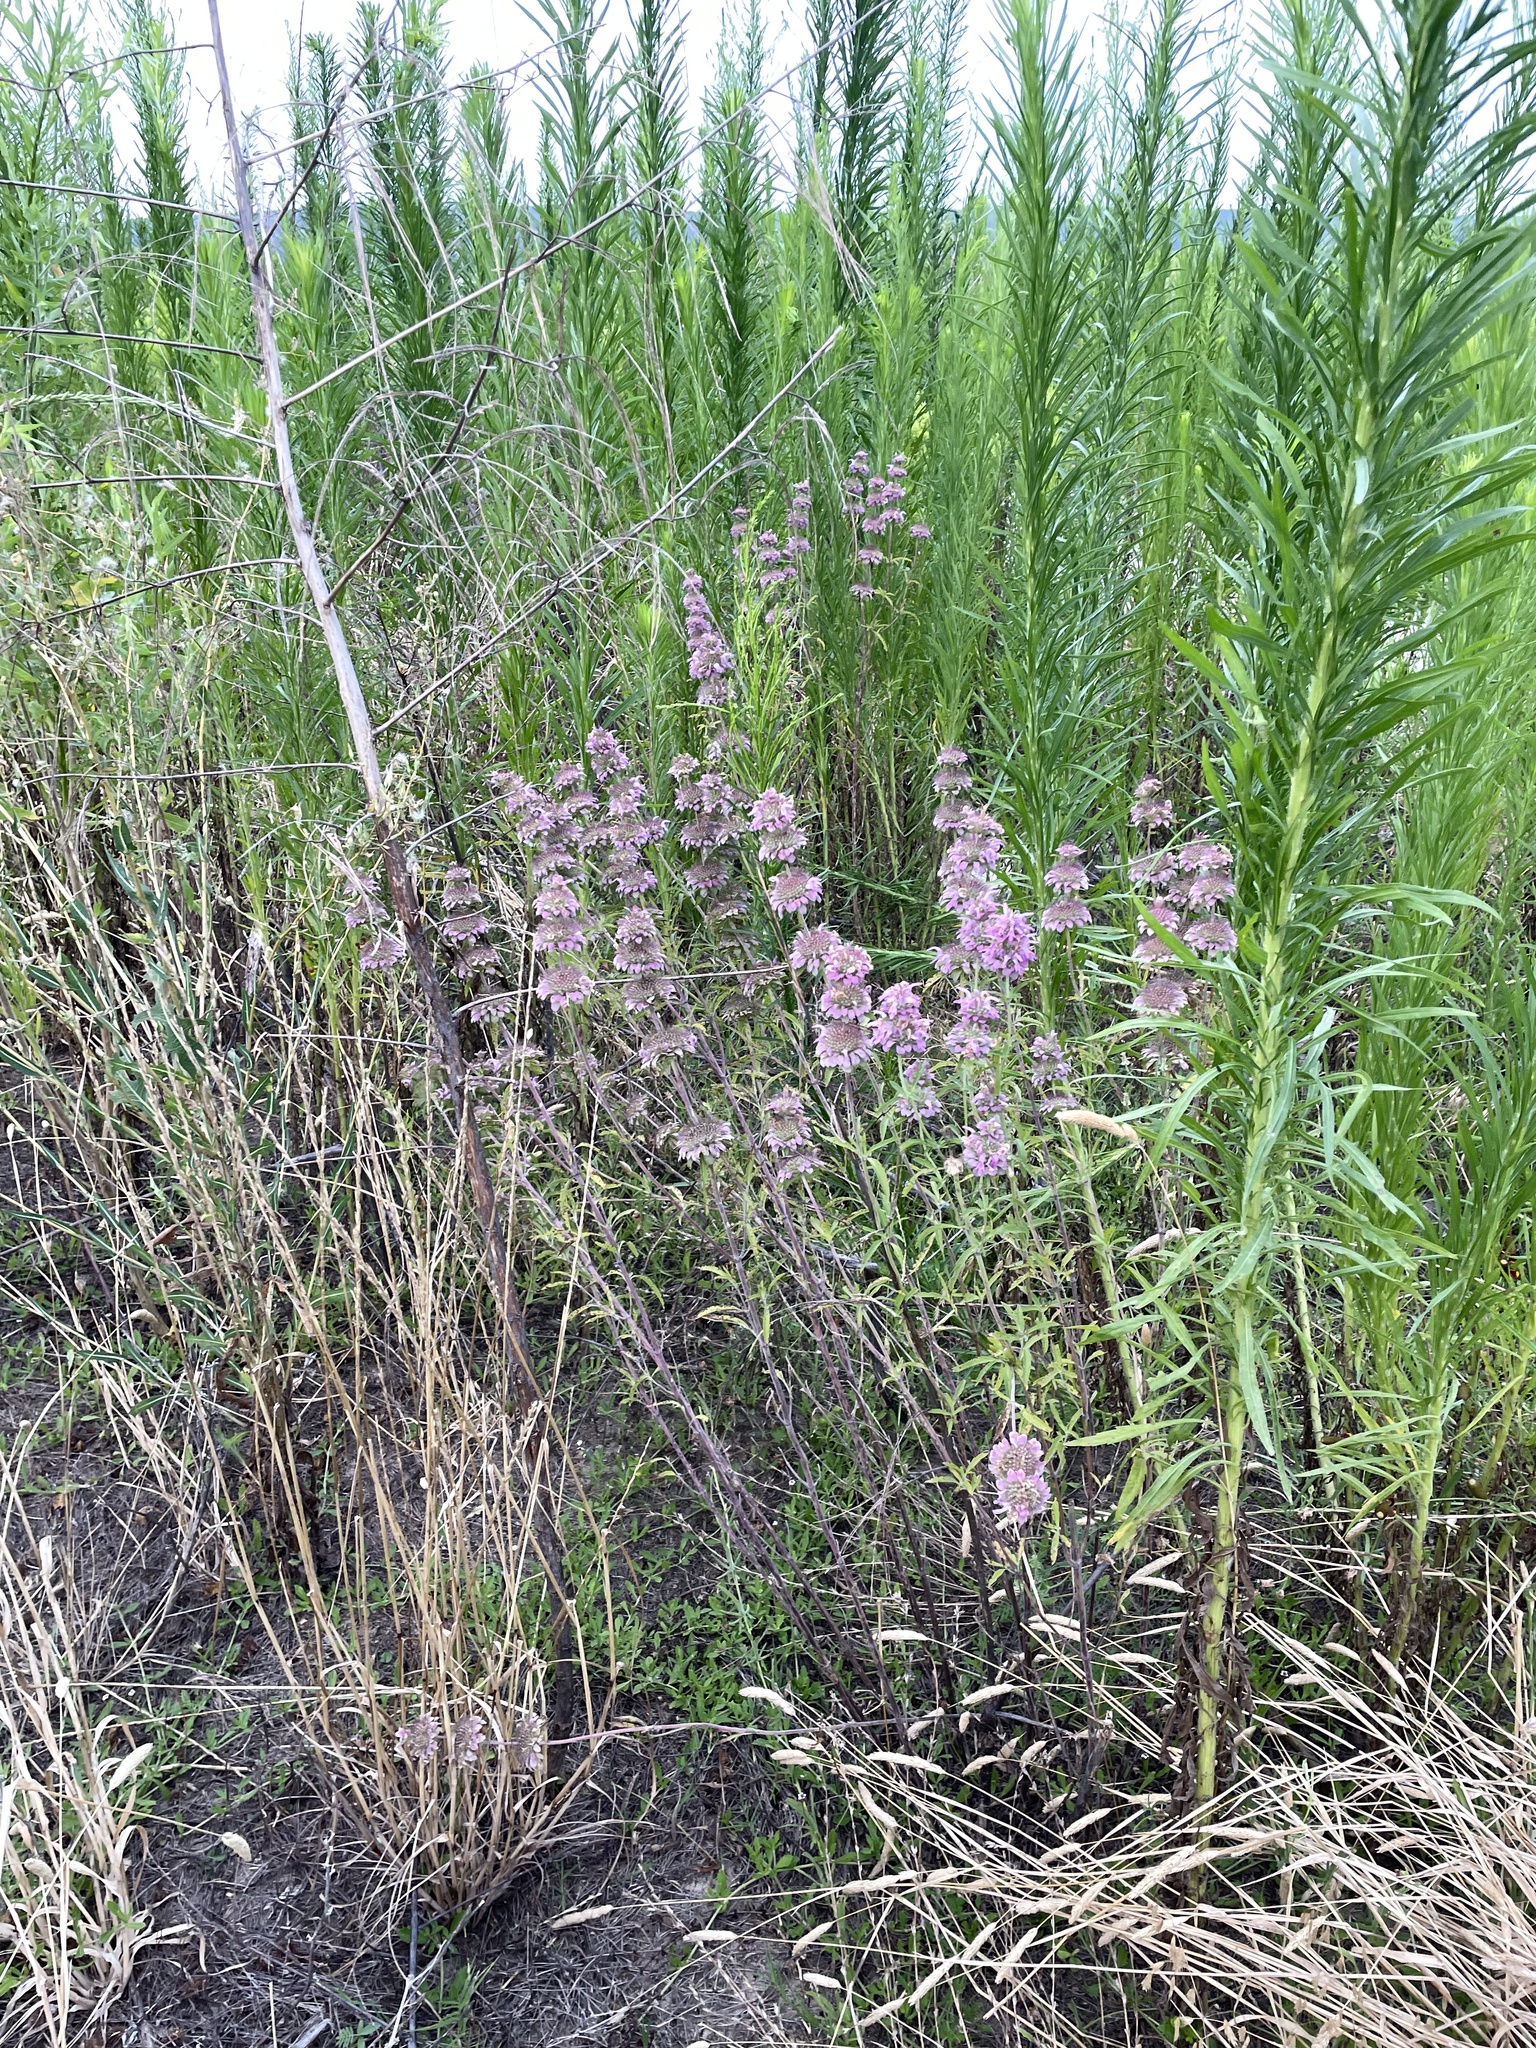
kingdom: Plantae
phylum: Tracheophyta
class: Magnoliopsida
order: Lamiales
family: Lamiaceae
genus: Monarda
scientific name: Monarda citriodora
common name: Lemon beebalm
